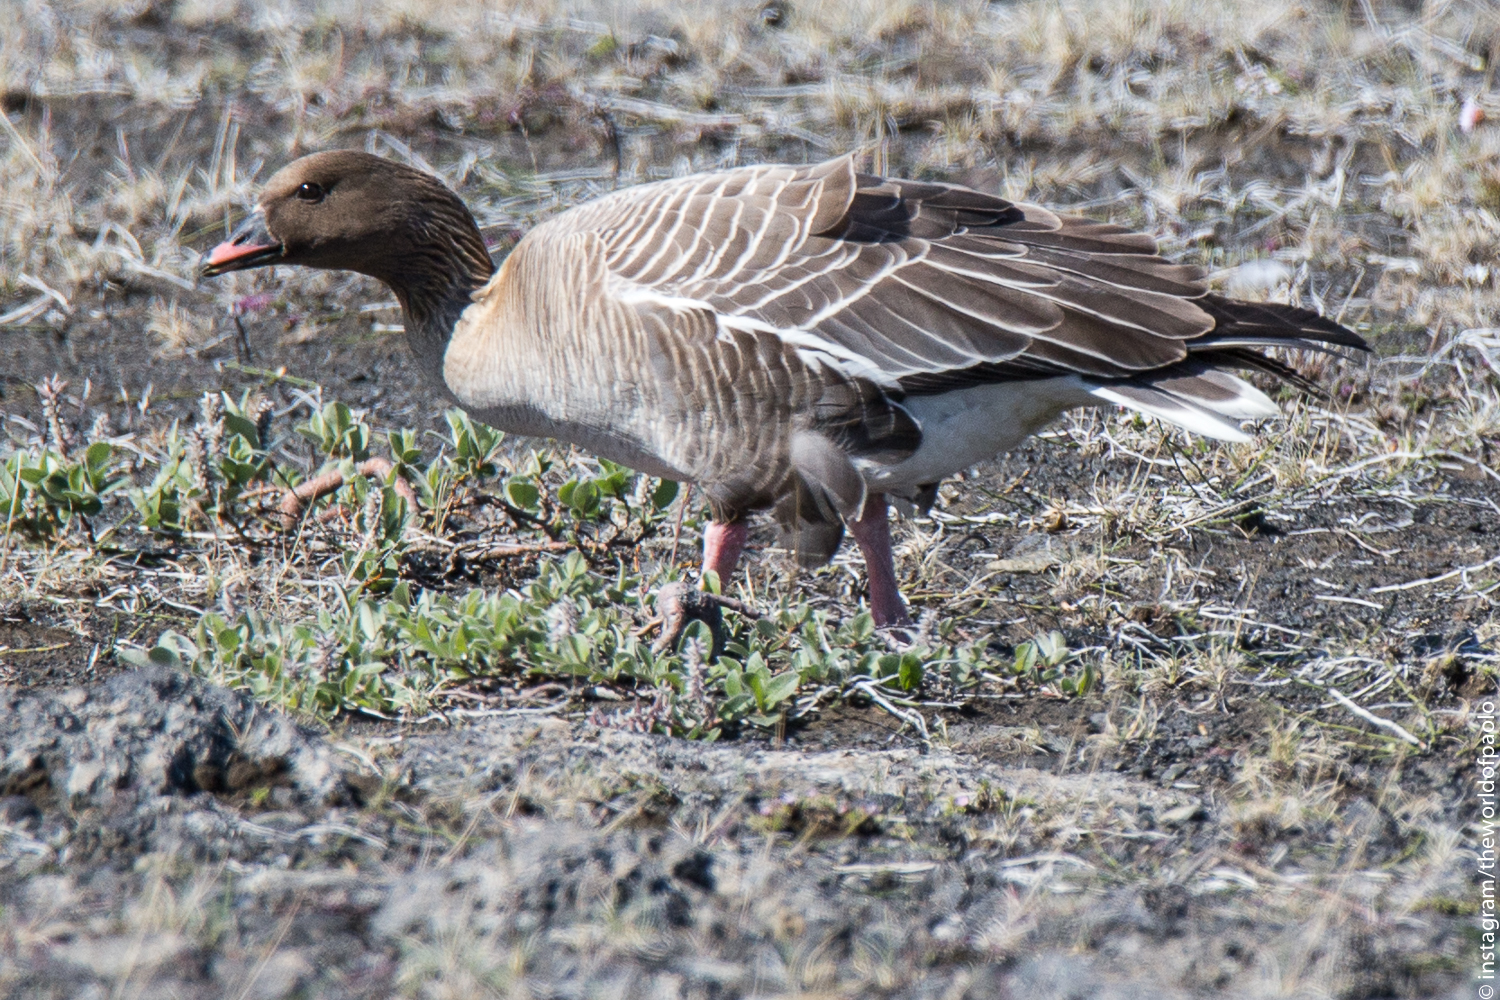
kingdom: Animalia
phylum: Chordata
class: Aves
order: Anseriformes
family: Anatidae
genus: Anser
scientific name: Anser brachyrhynchus
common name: Pink-footed goose
